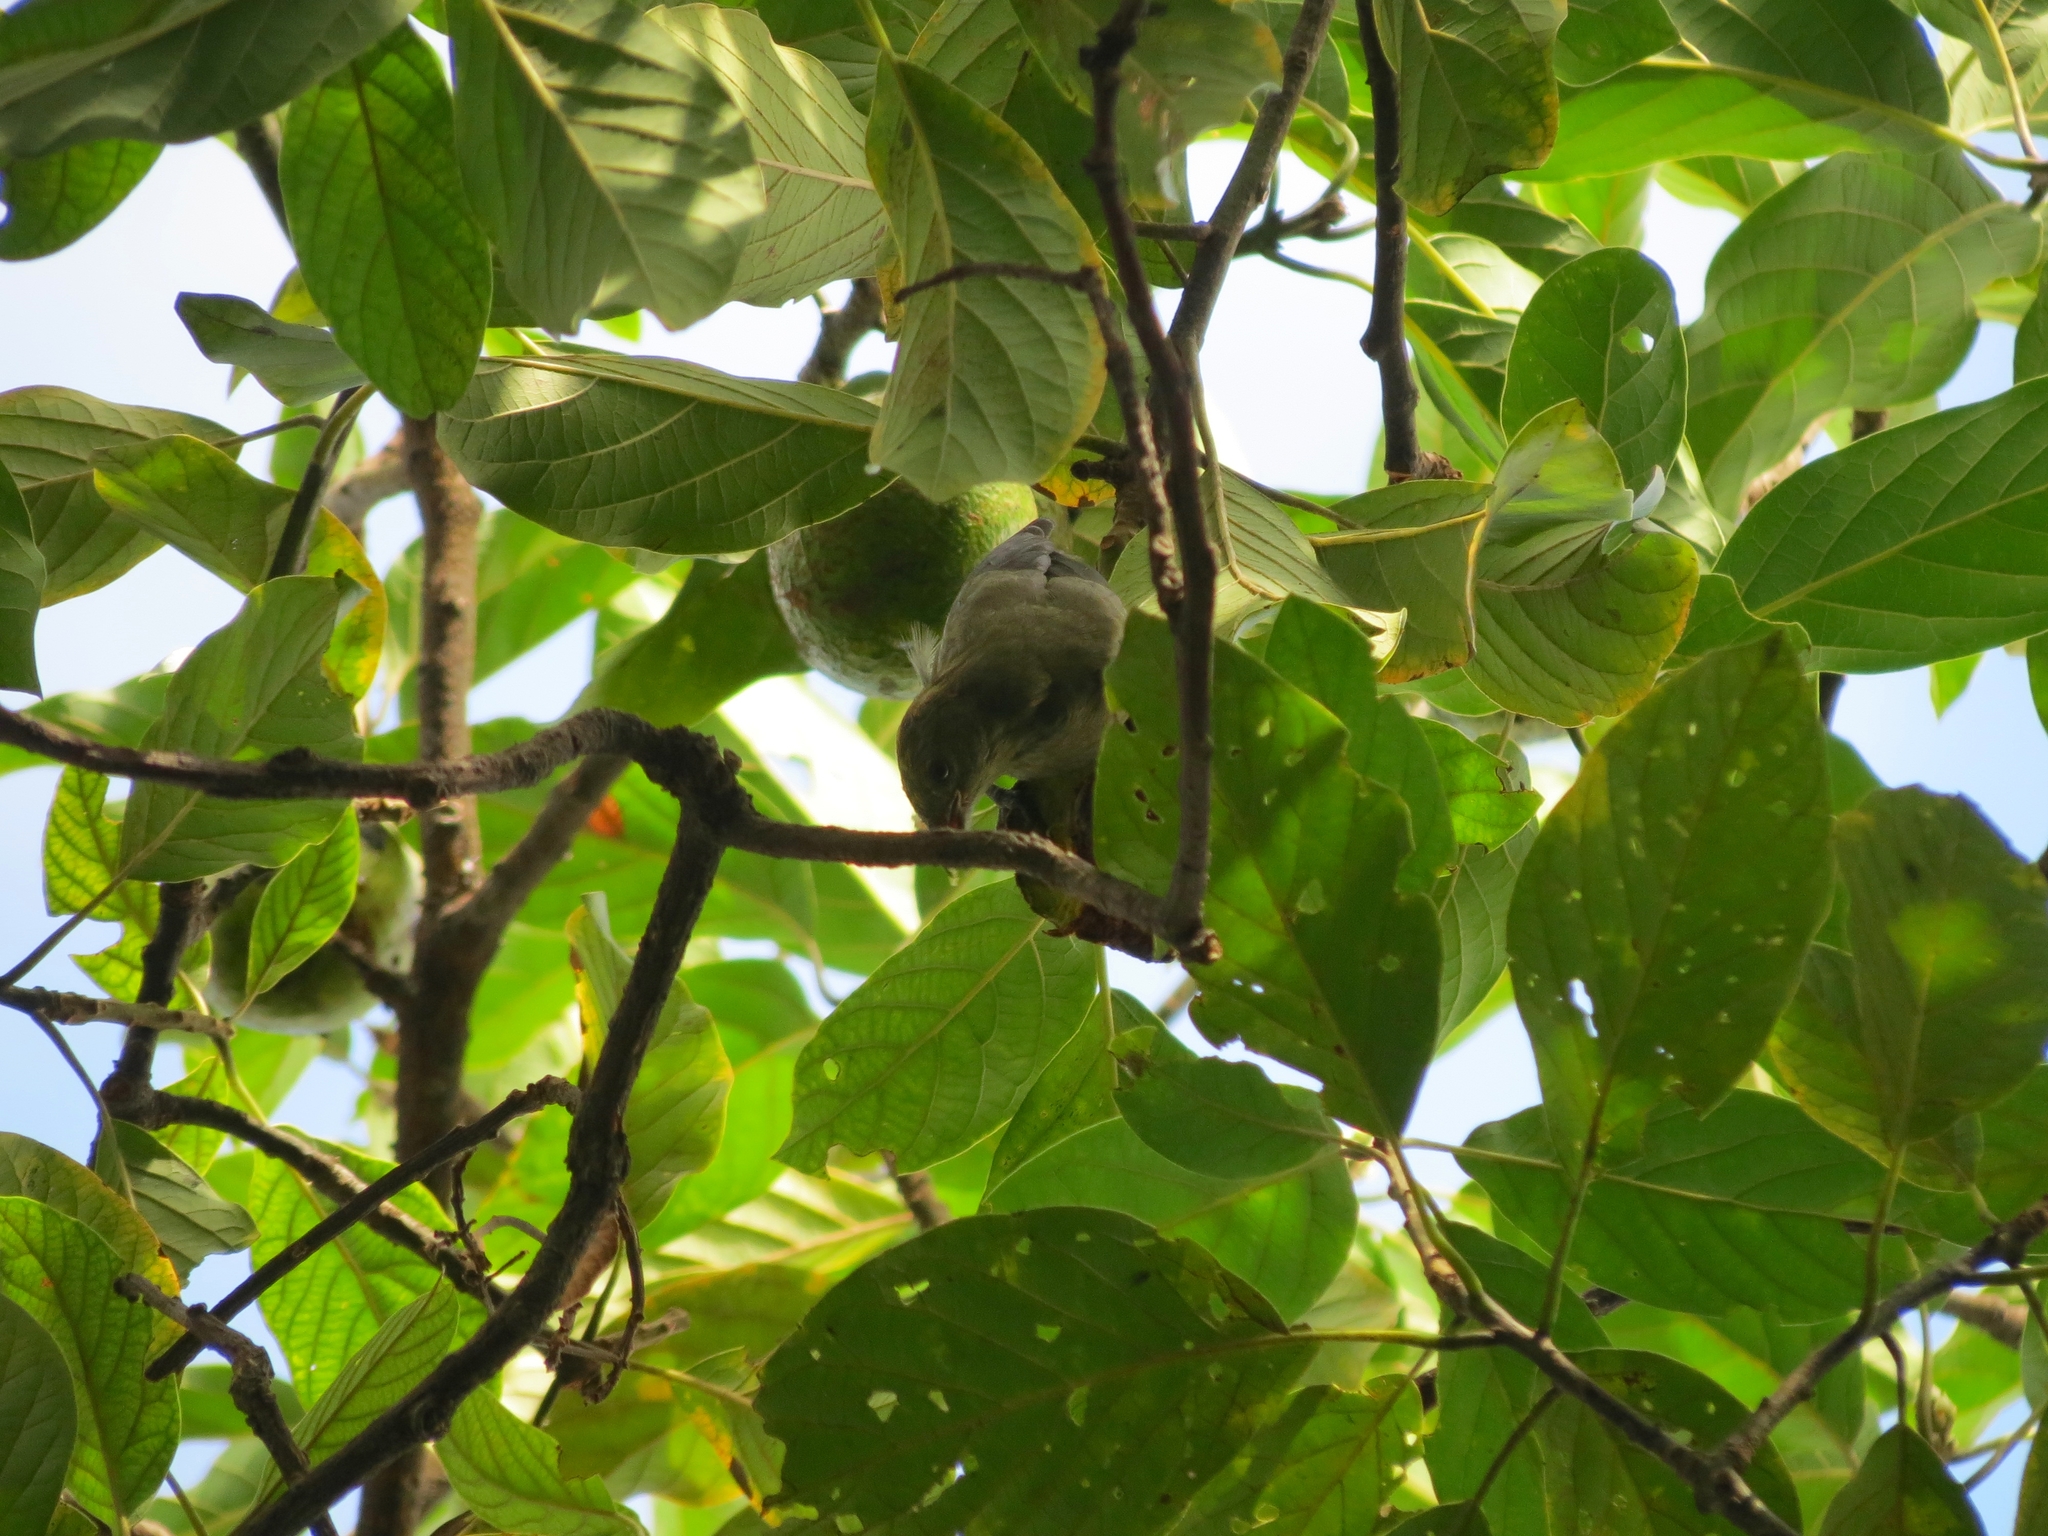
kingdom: Animalia
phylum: Chordata
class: Aves
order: Passeriformes
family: Thraupidae
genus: Thraupis
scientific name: Thraupis palmarum
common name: Palm tanager
